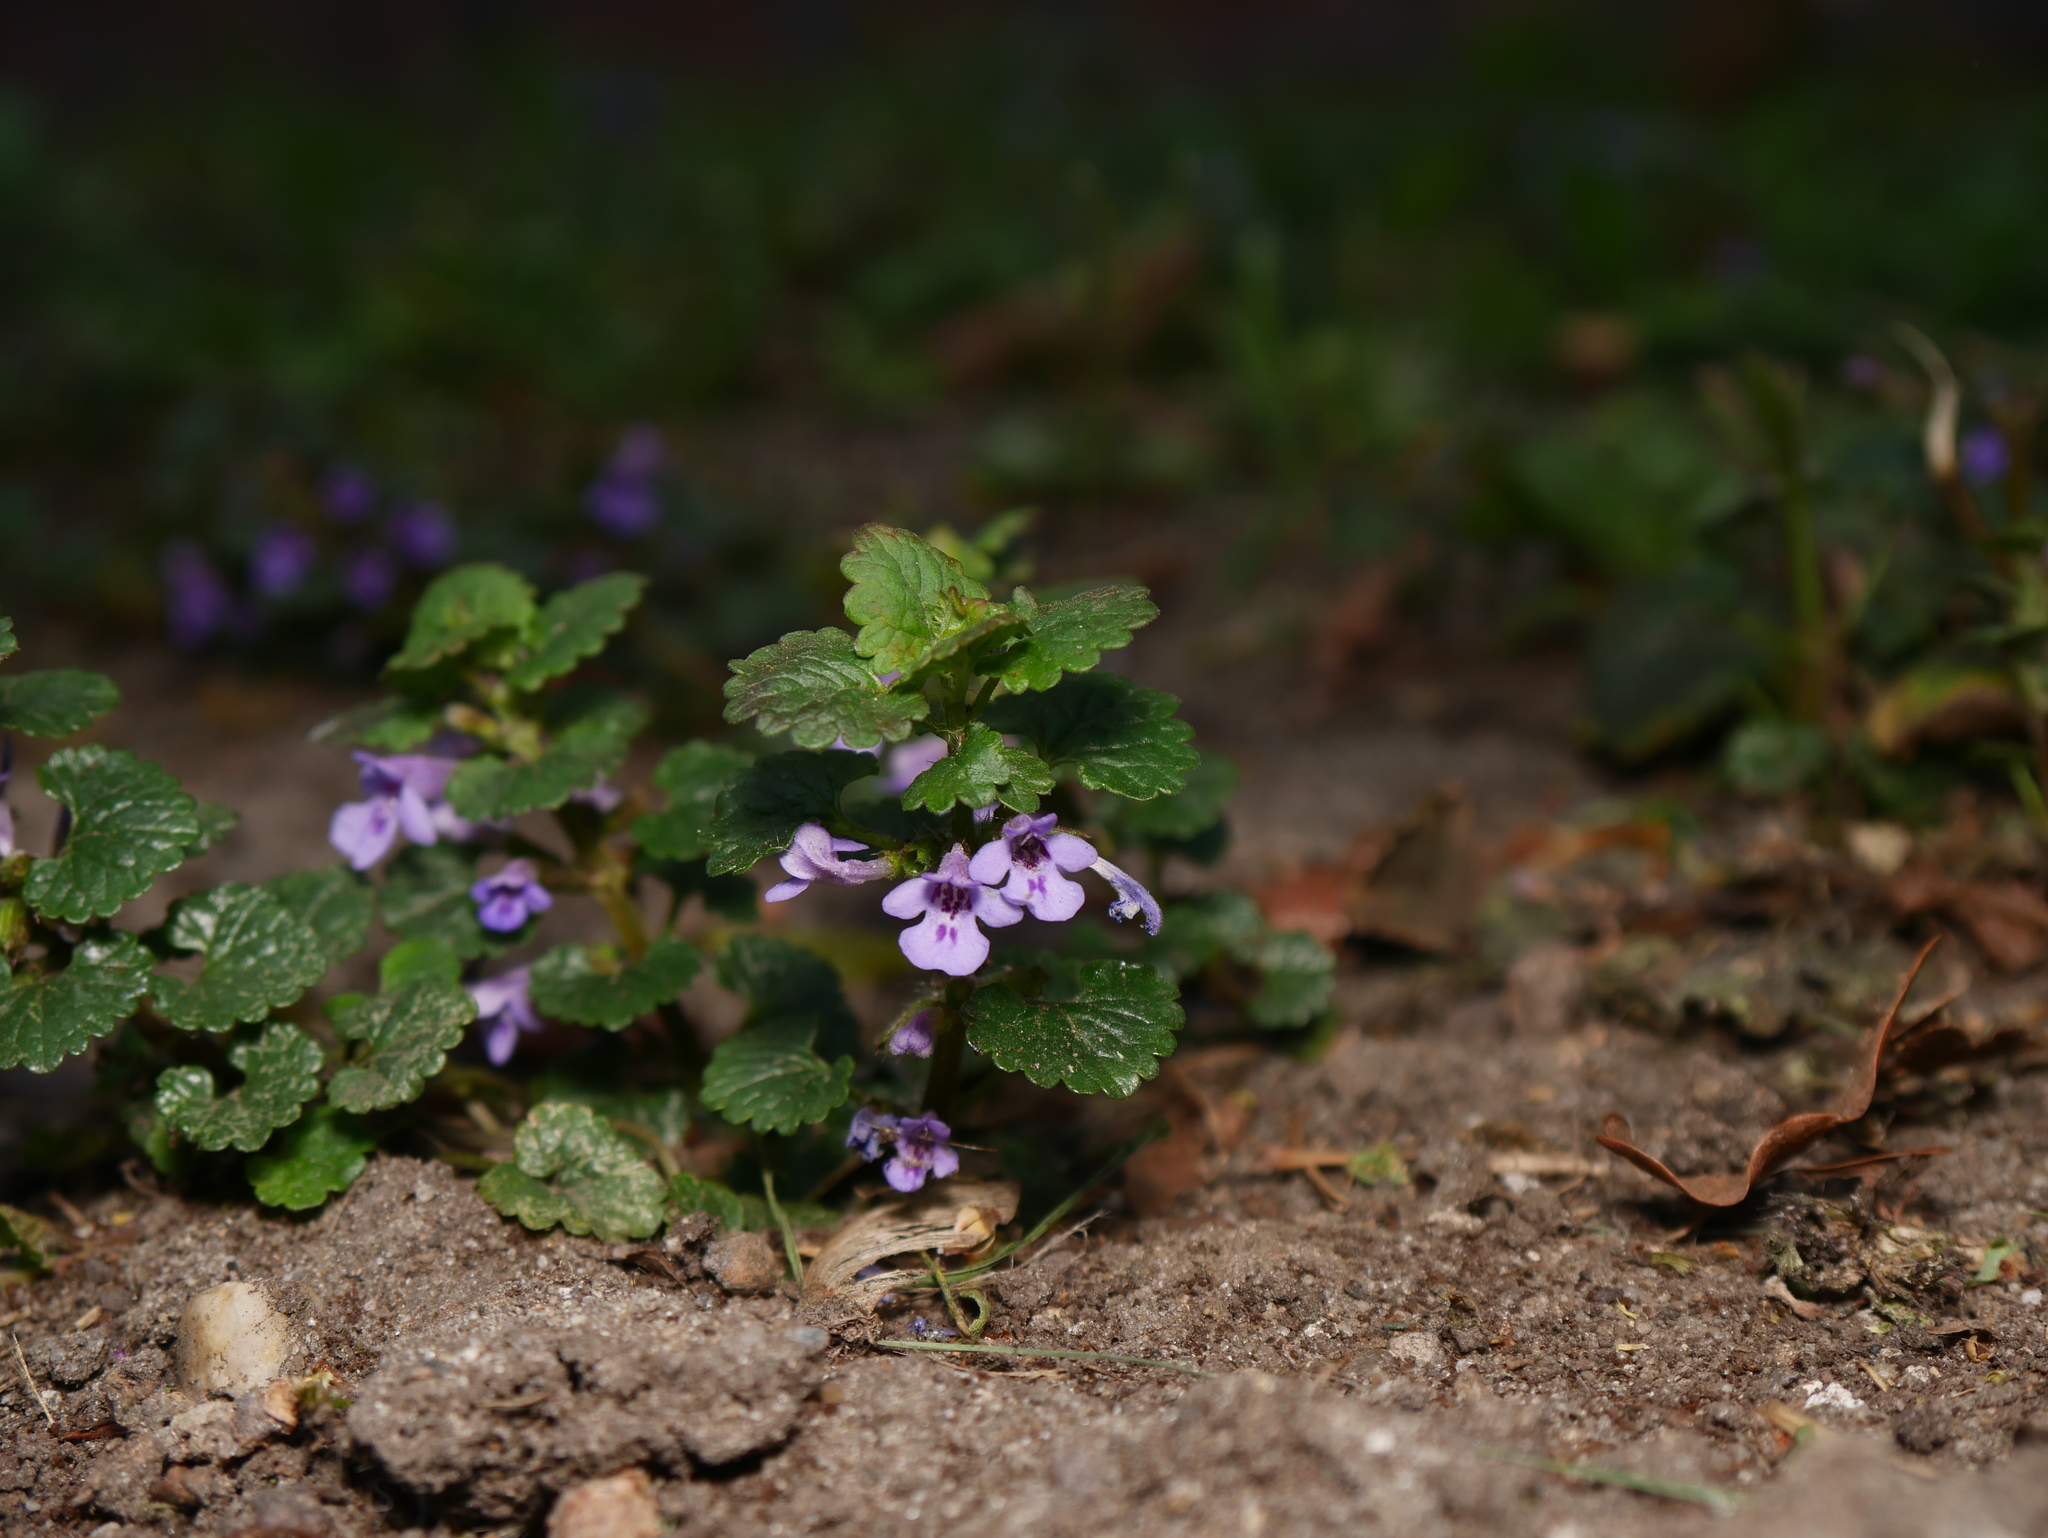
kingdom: Plantae
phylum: Tracheophyta
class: Magnoliopsida
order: Lamiales
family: Lamiaceae
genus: Glechoma
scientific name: Glechoma hederacea
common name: Ground ivy
